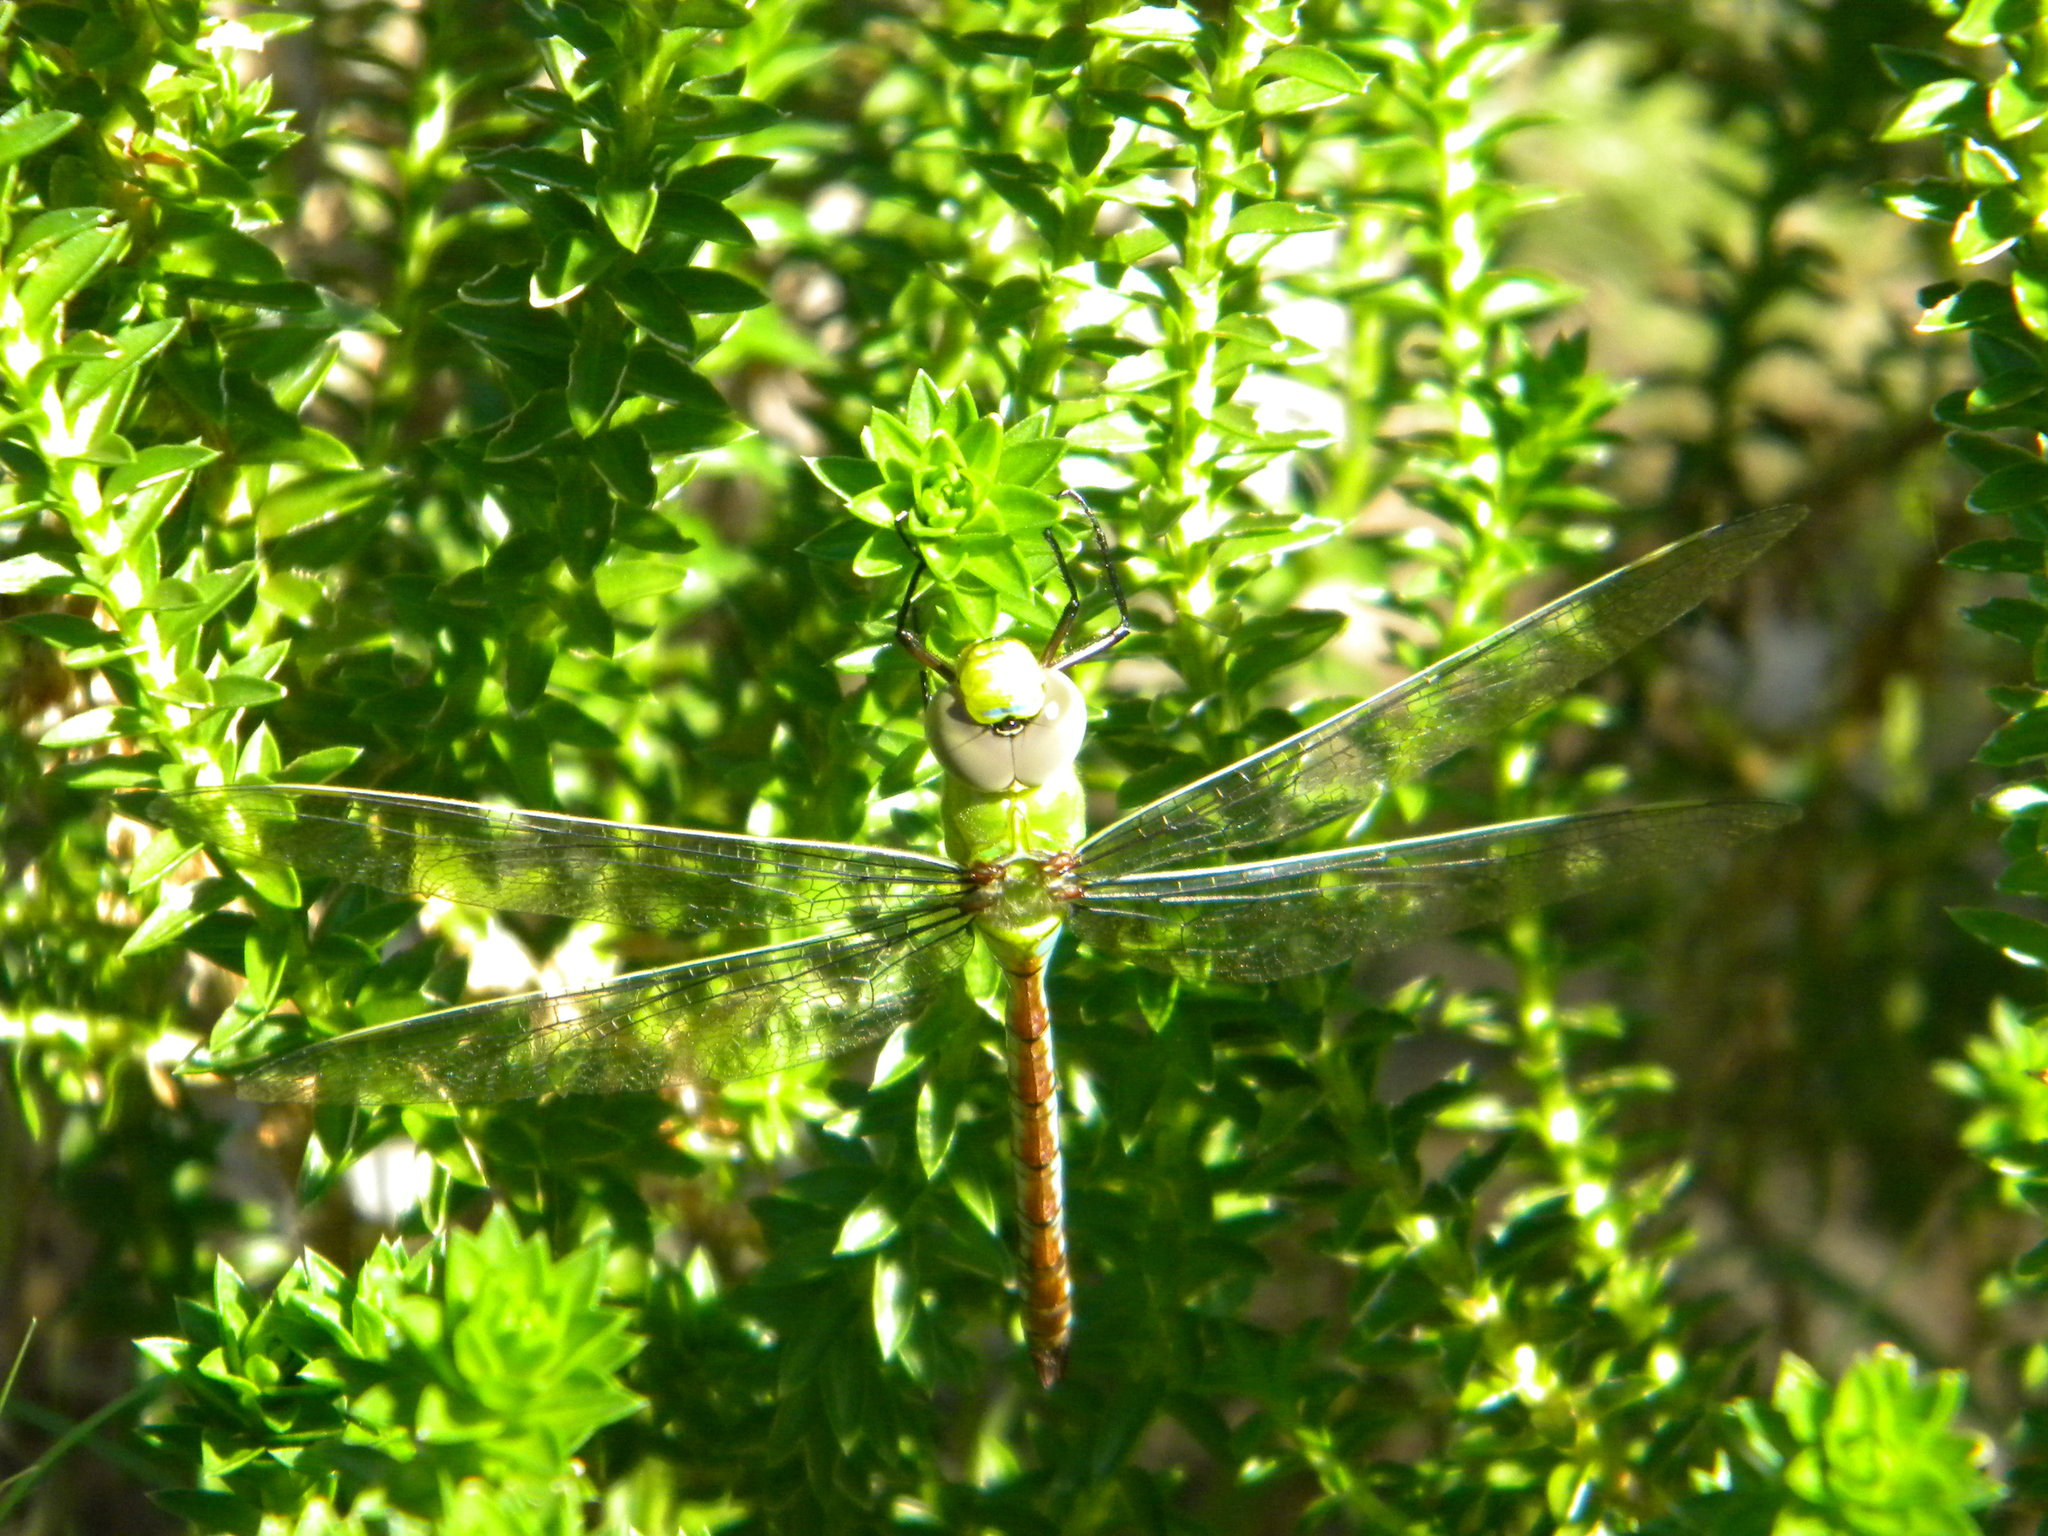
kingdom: Animalia
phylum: Arthropoda
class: Insecta
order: Odonata
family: Aeshnidae
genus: Anax
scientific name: Anax imperator
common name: Emperor dragonfly
